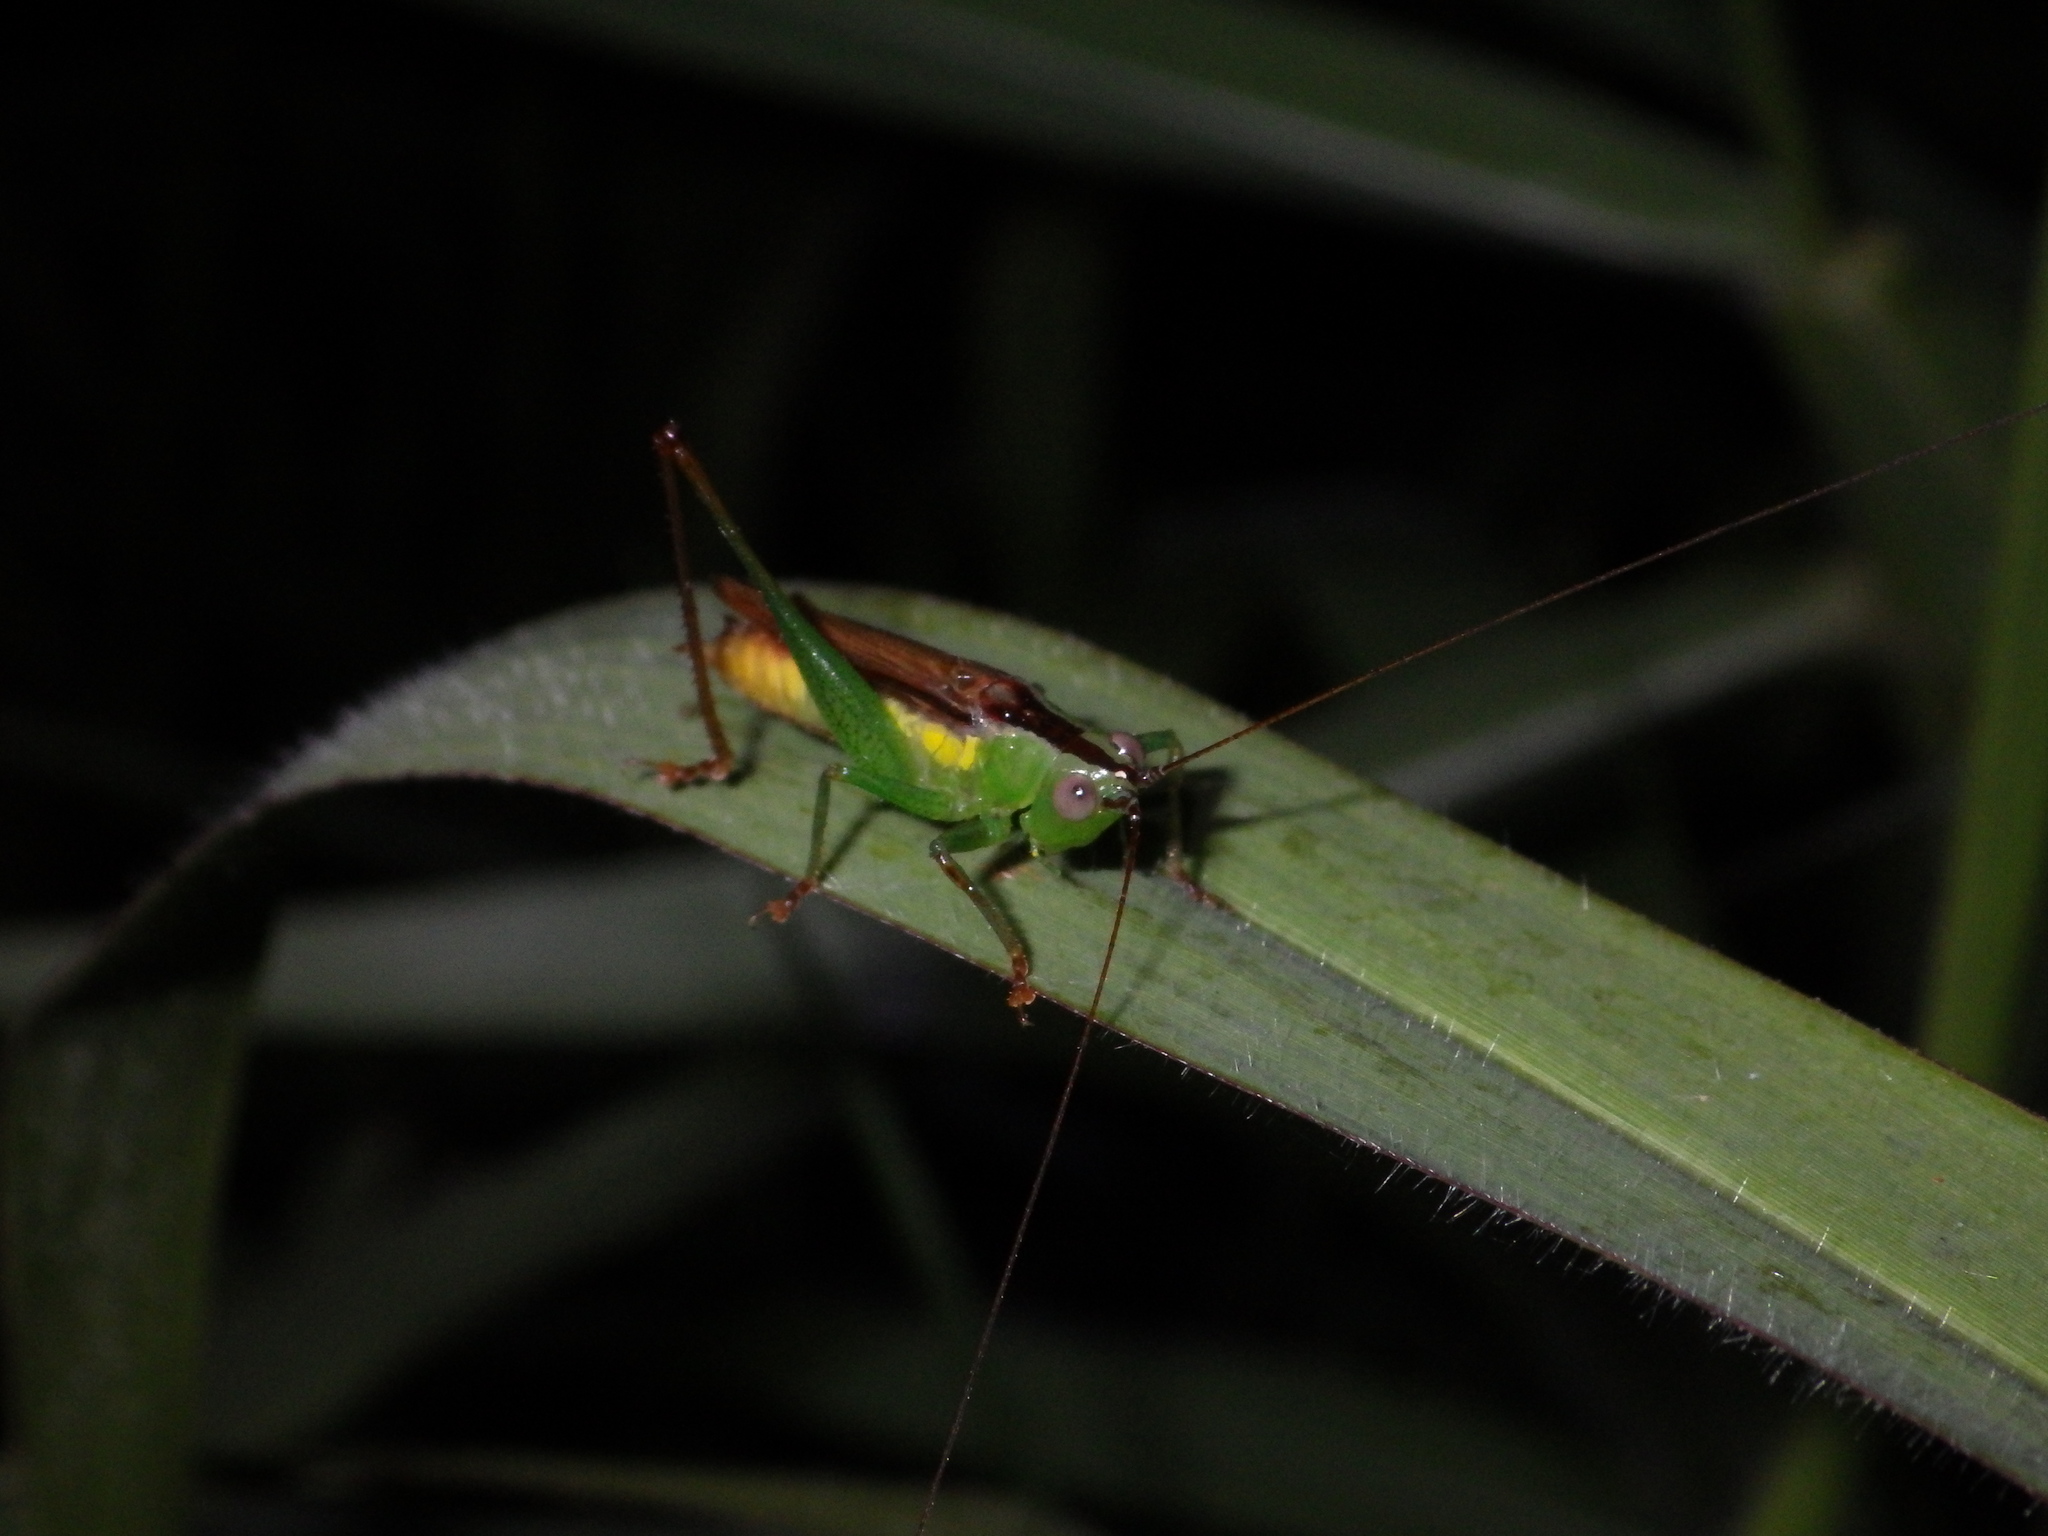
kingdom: Animalia
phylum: Arthropoda
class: Insecta
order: Orthoptera
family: Tettigoniidae
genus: Conocephalus
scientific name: Conocephalus redtenbacheri
